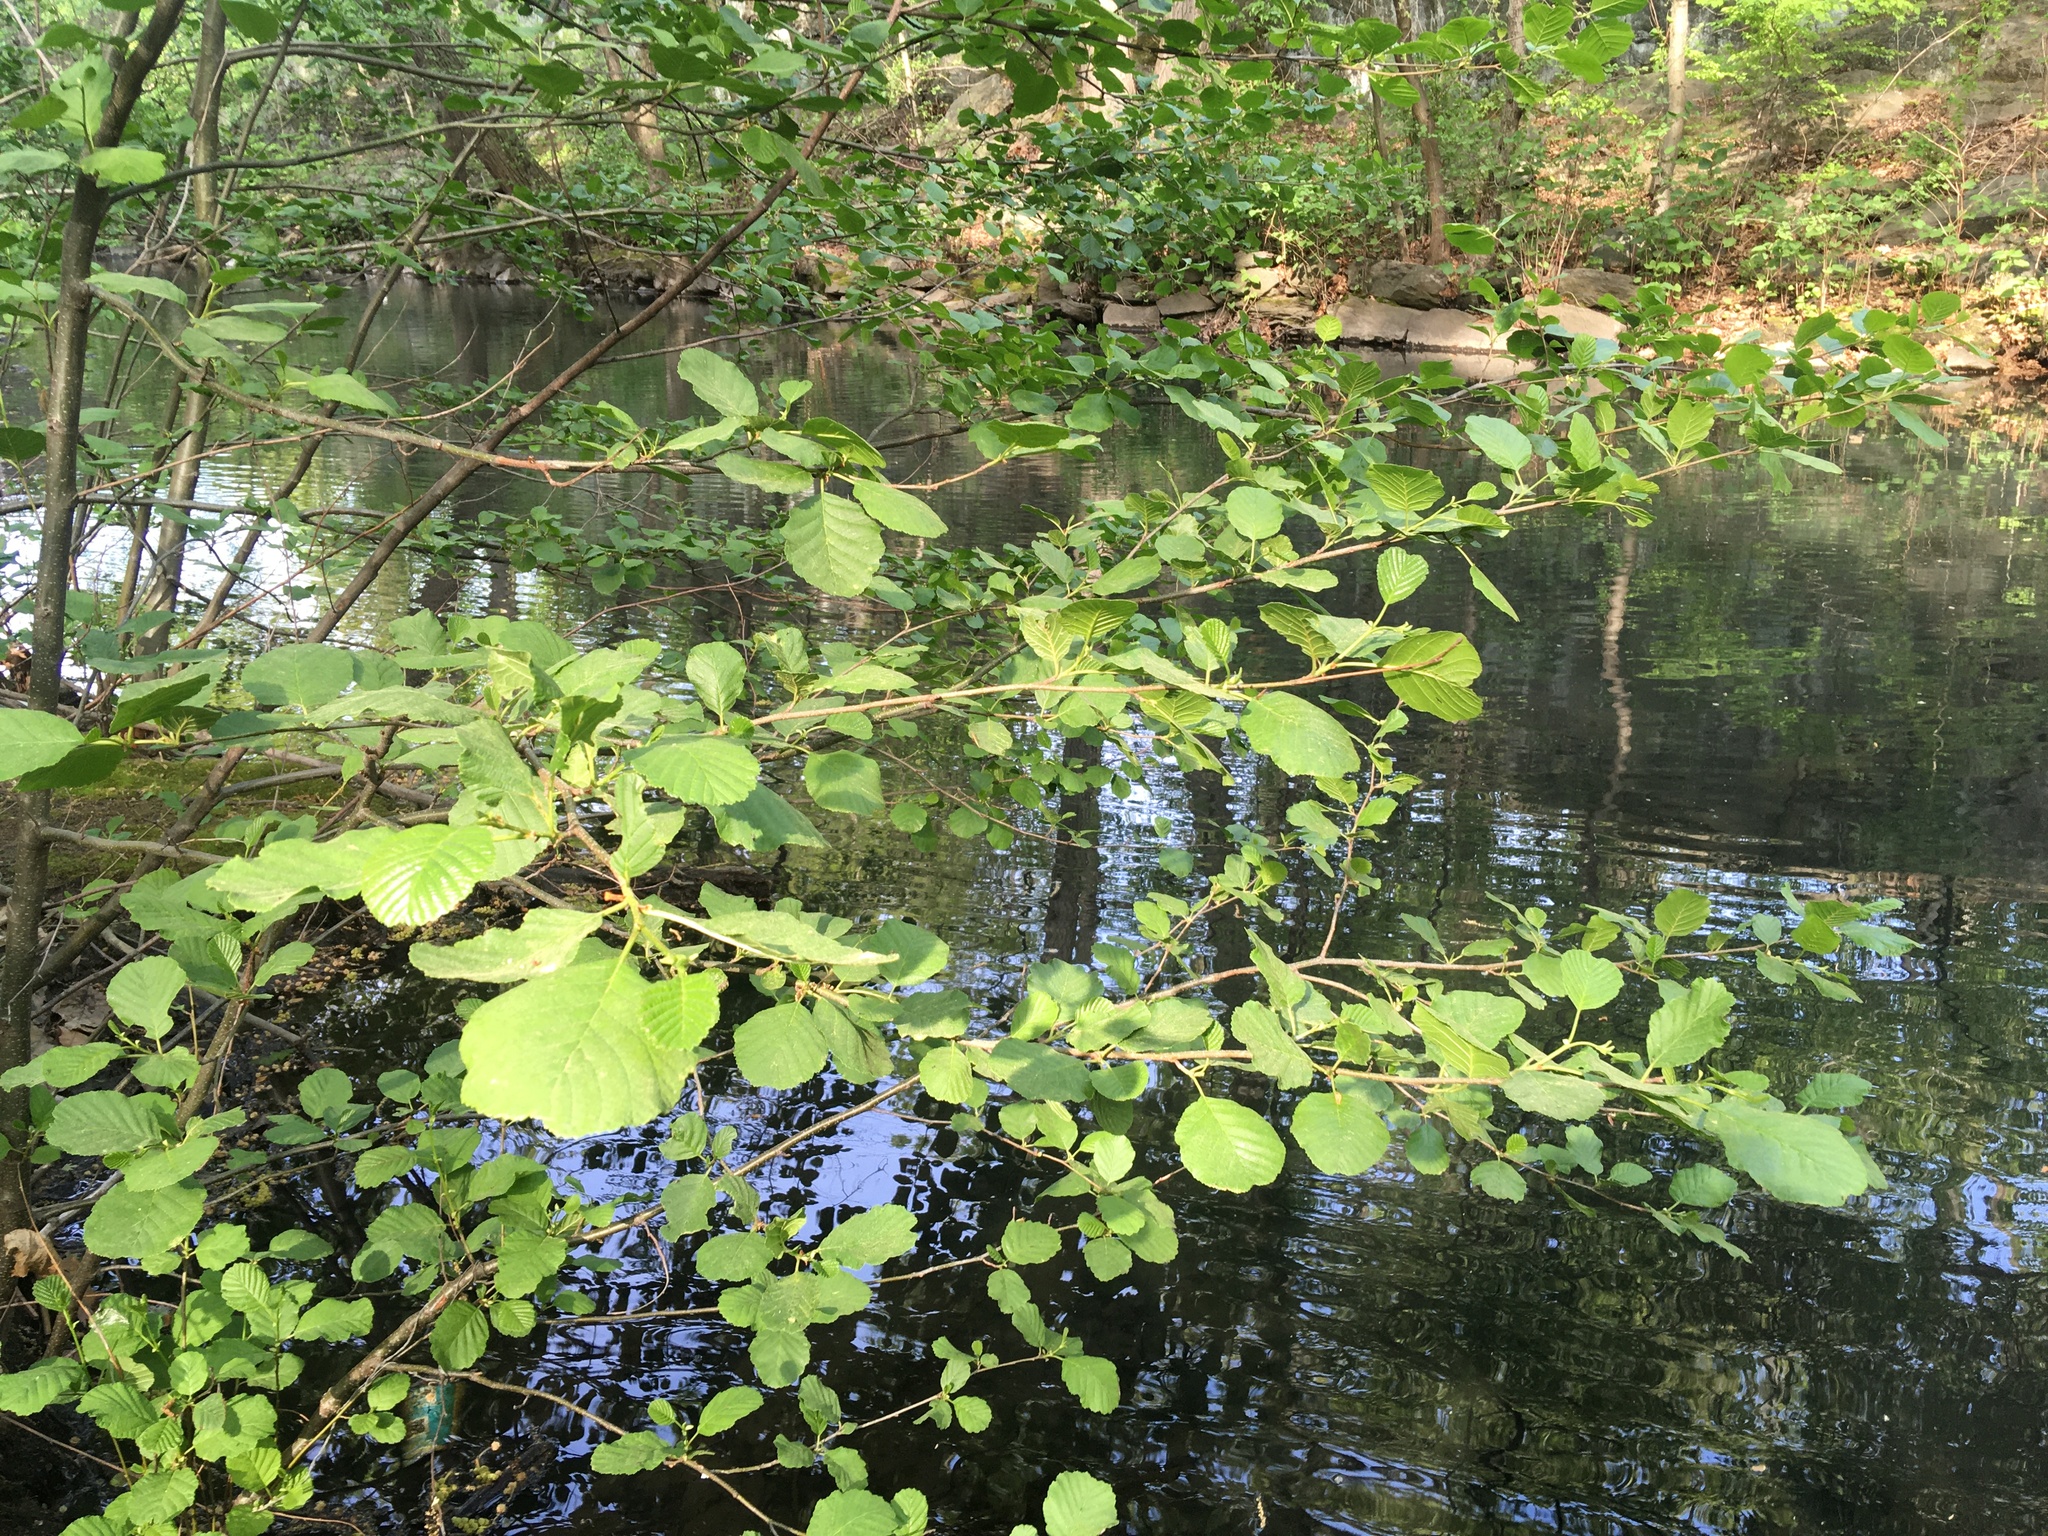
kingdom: Plantae
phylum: Tracheophyta
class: Magnoliopsida
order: Fagales
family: Betulaceae
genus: Alnus
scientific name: Alnus glutinosa
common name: Black alder
